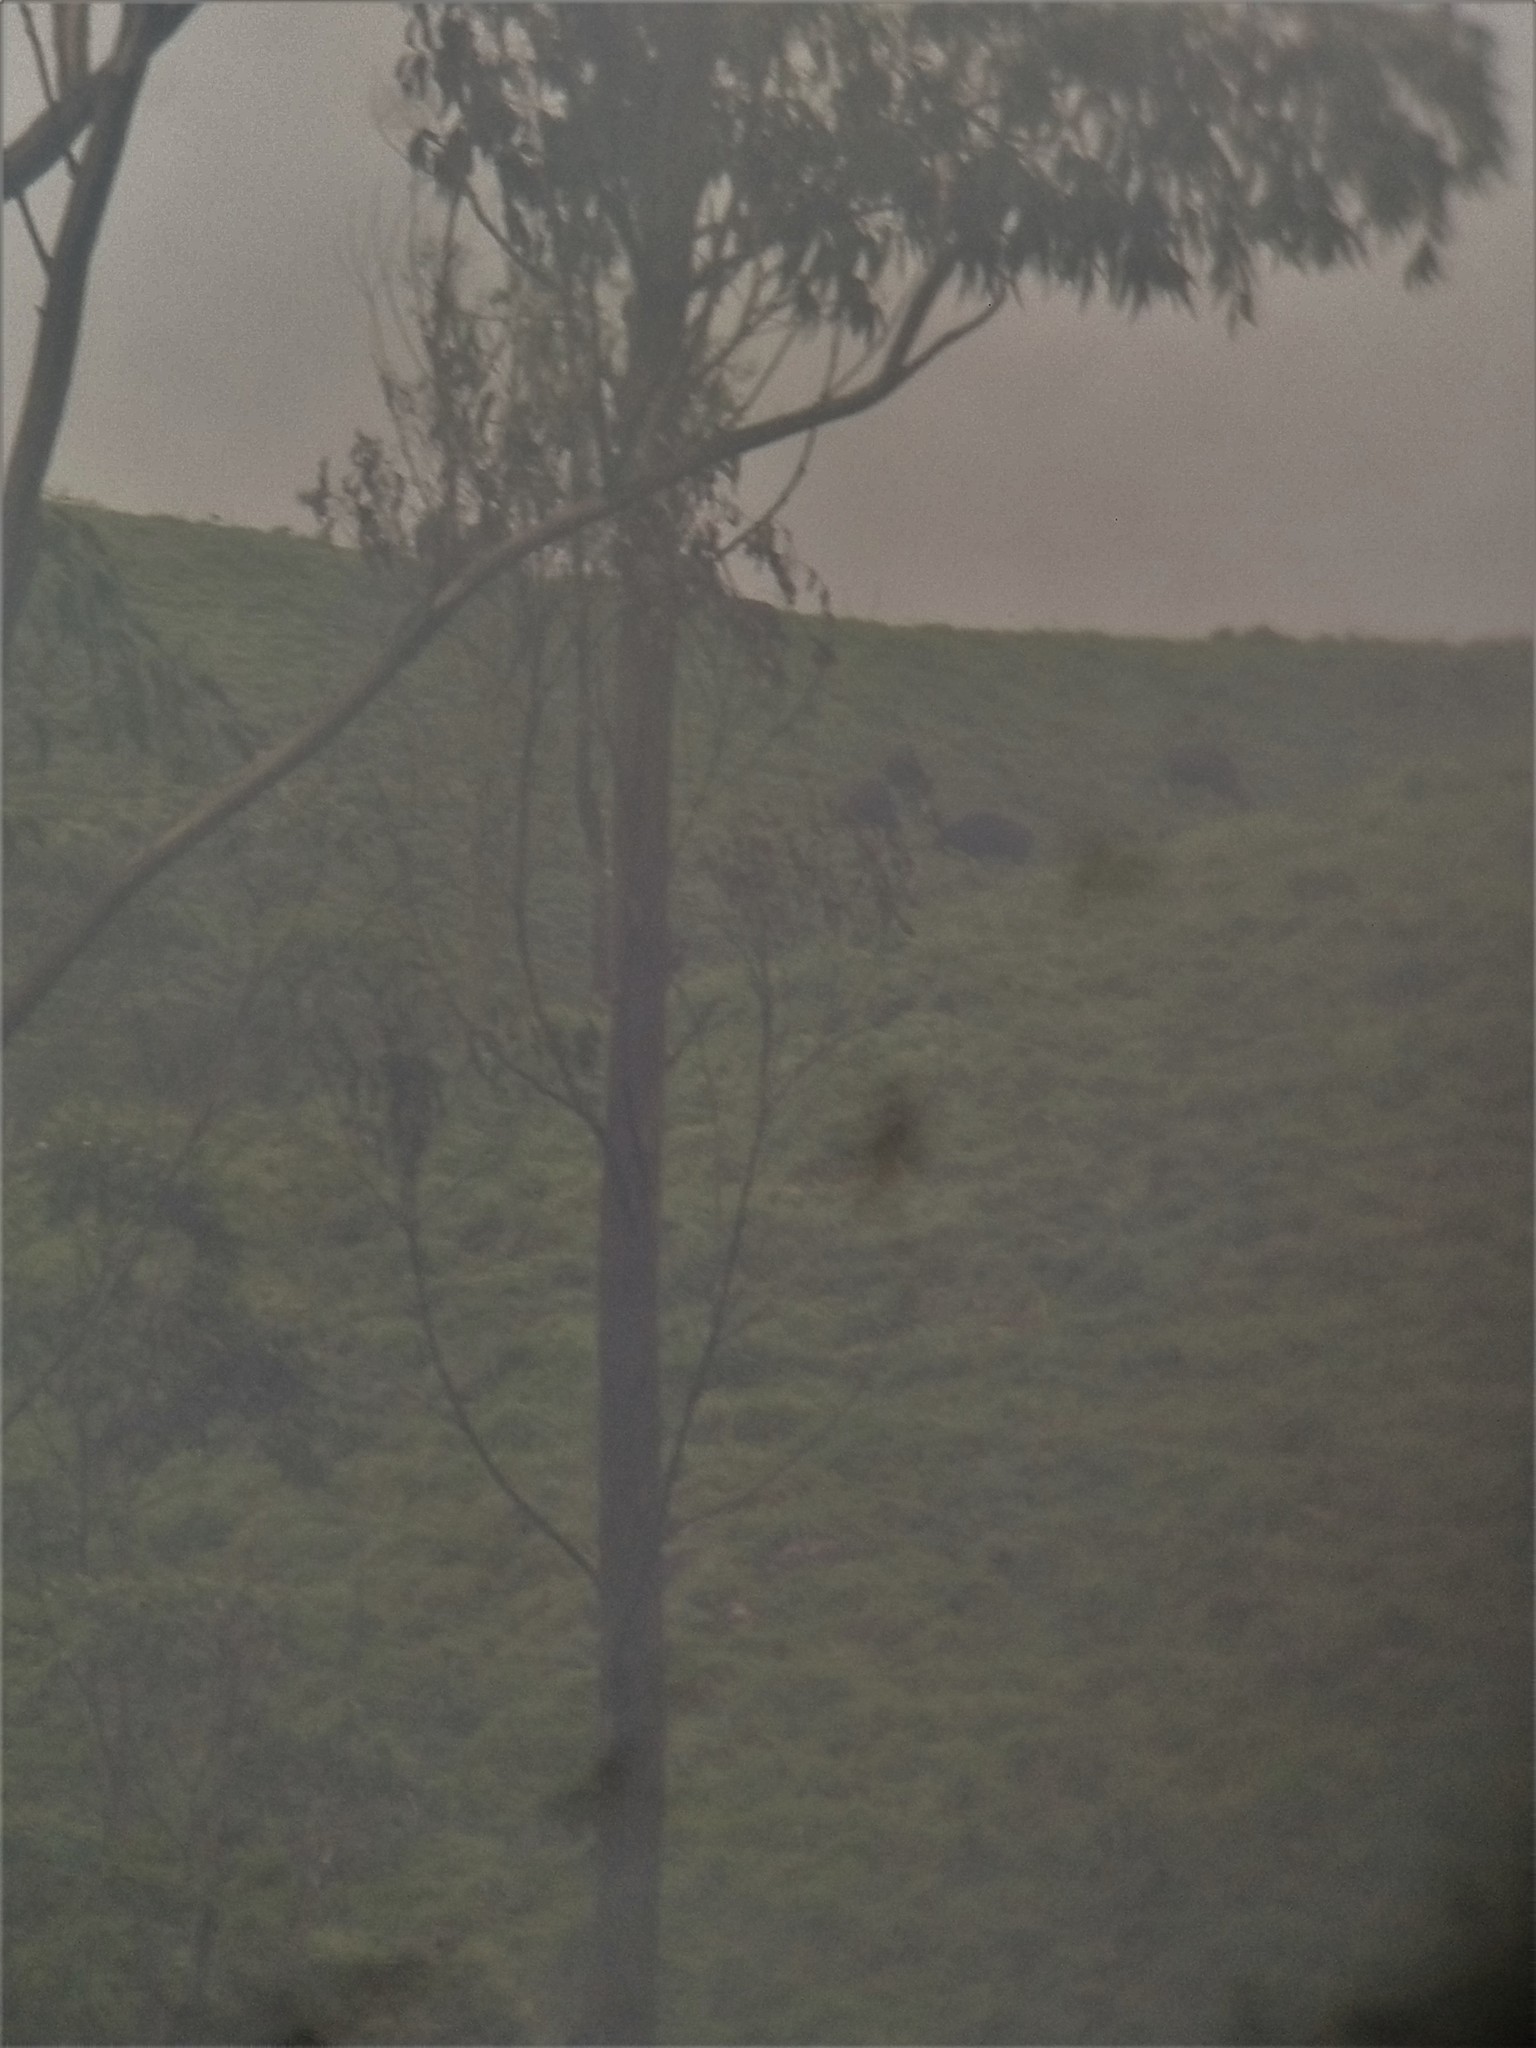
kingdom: Animalia
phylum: Chordata
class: Mammalia
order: Artiodactyla
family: Bovidae
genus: Bos
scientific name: Bos frontalis
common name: Gaur
